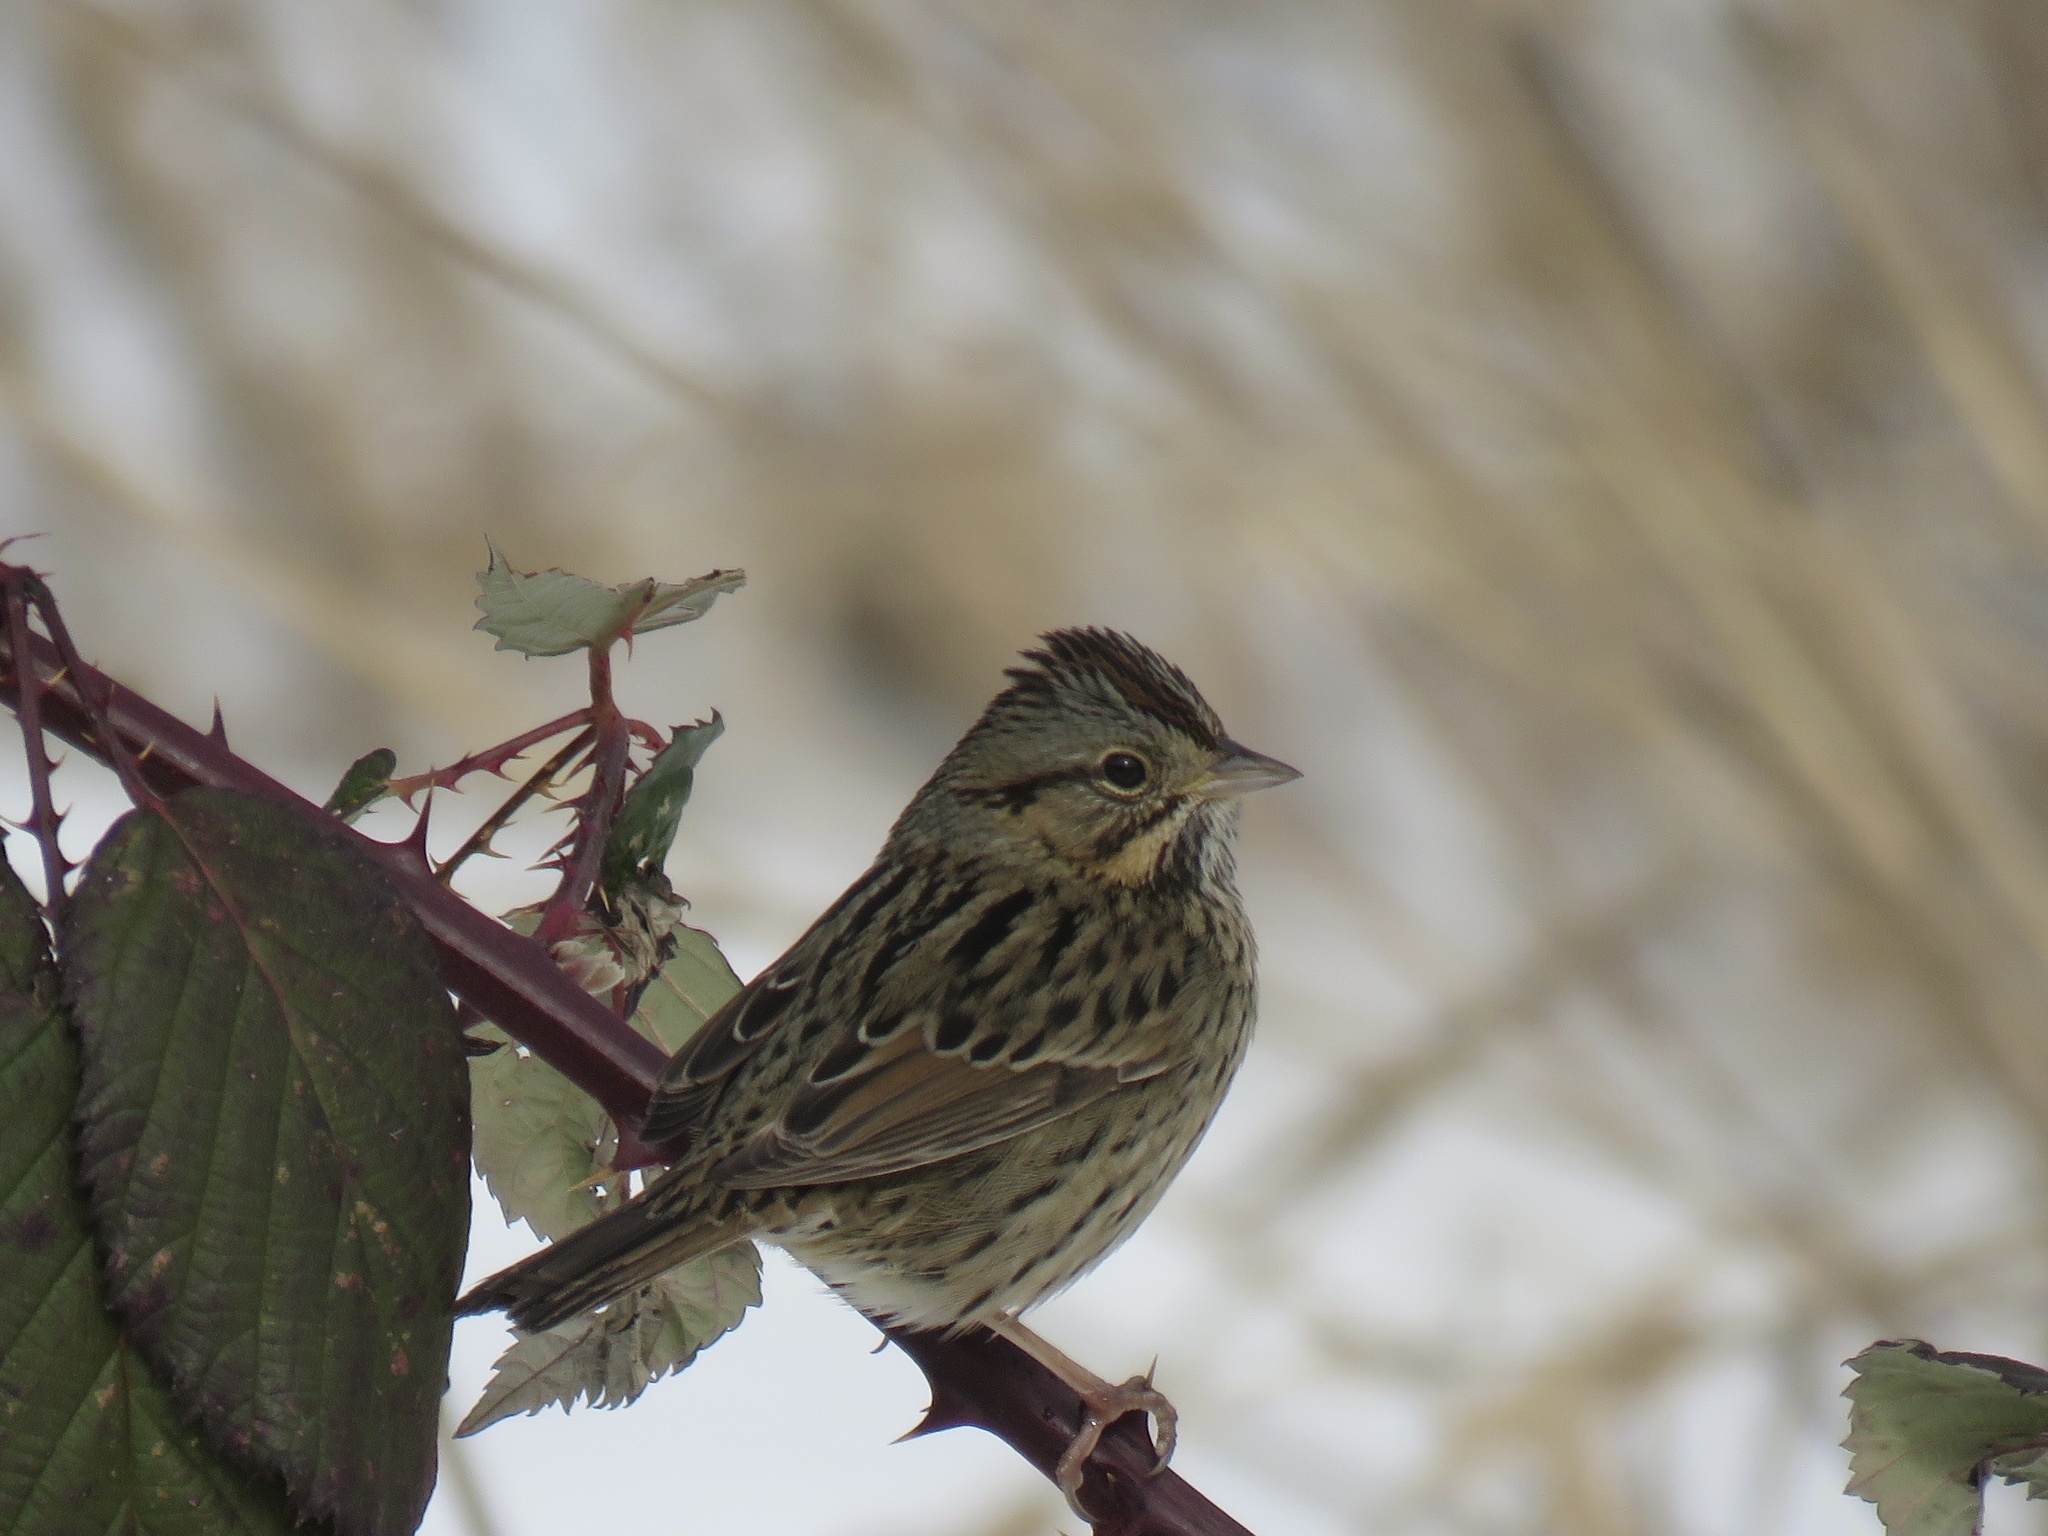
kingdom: Animalia
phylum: Chordata
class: Aves
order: Passeriformes
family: Passerellidae
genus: Melospiza
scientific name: Melospiza lincolnii
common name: Lincoln's sparrow
